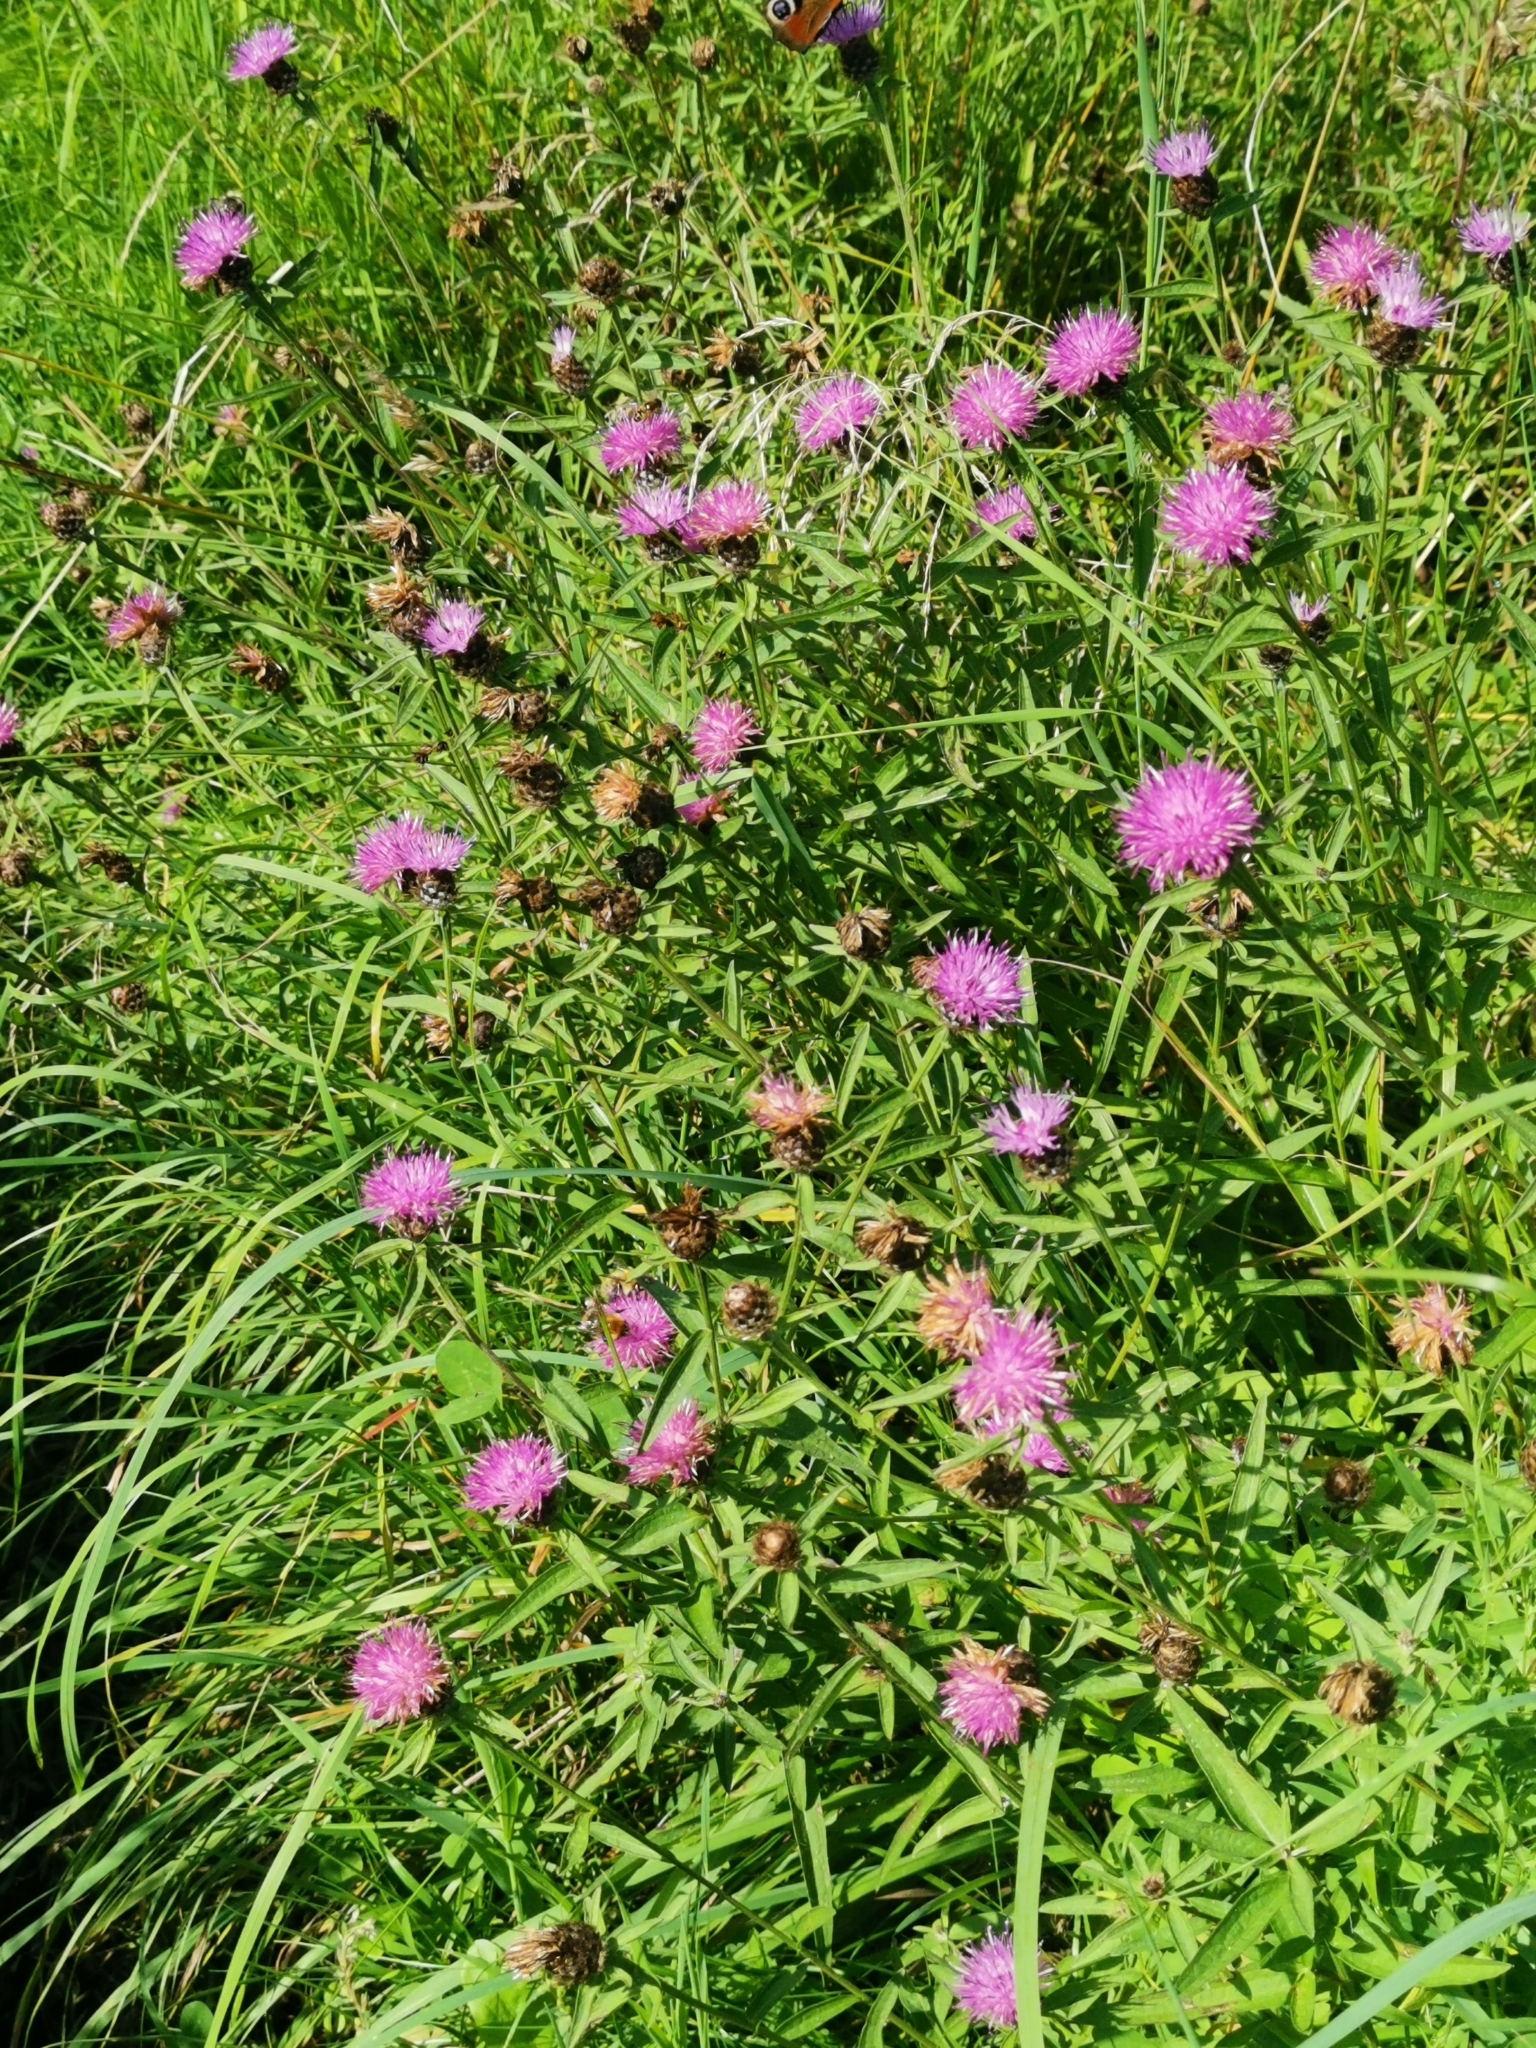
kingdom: Plantae
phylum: Tracheophyta
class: Magnoliopsida
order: Asterales
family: Asteraceae
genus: Centaurea
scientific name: Centaurea nigra
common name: Lesser knapweed
